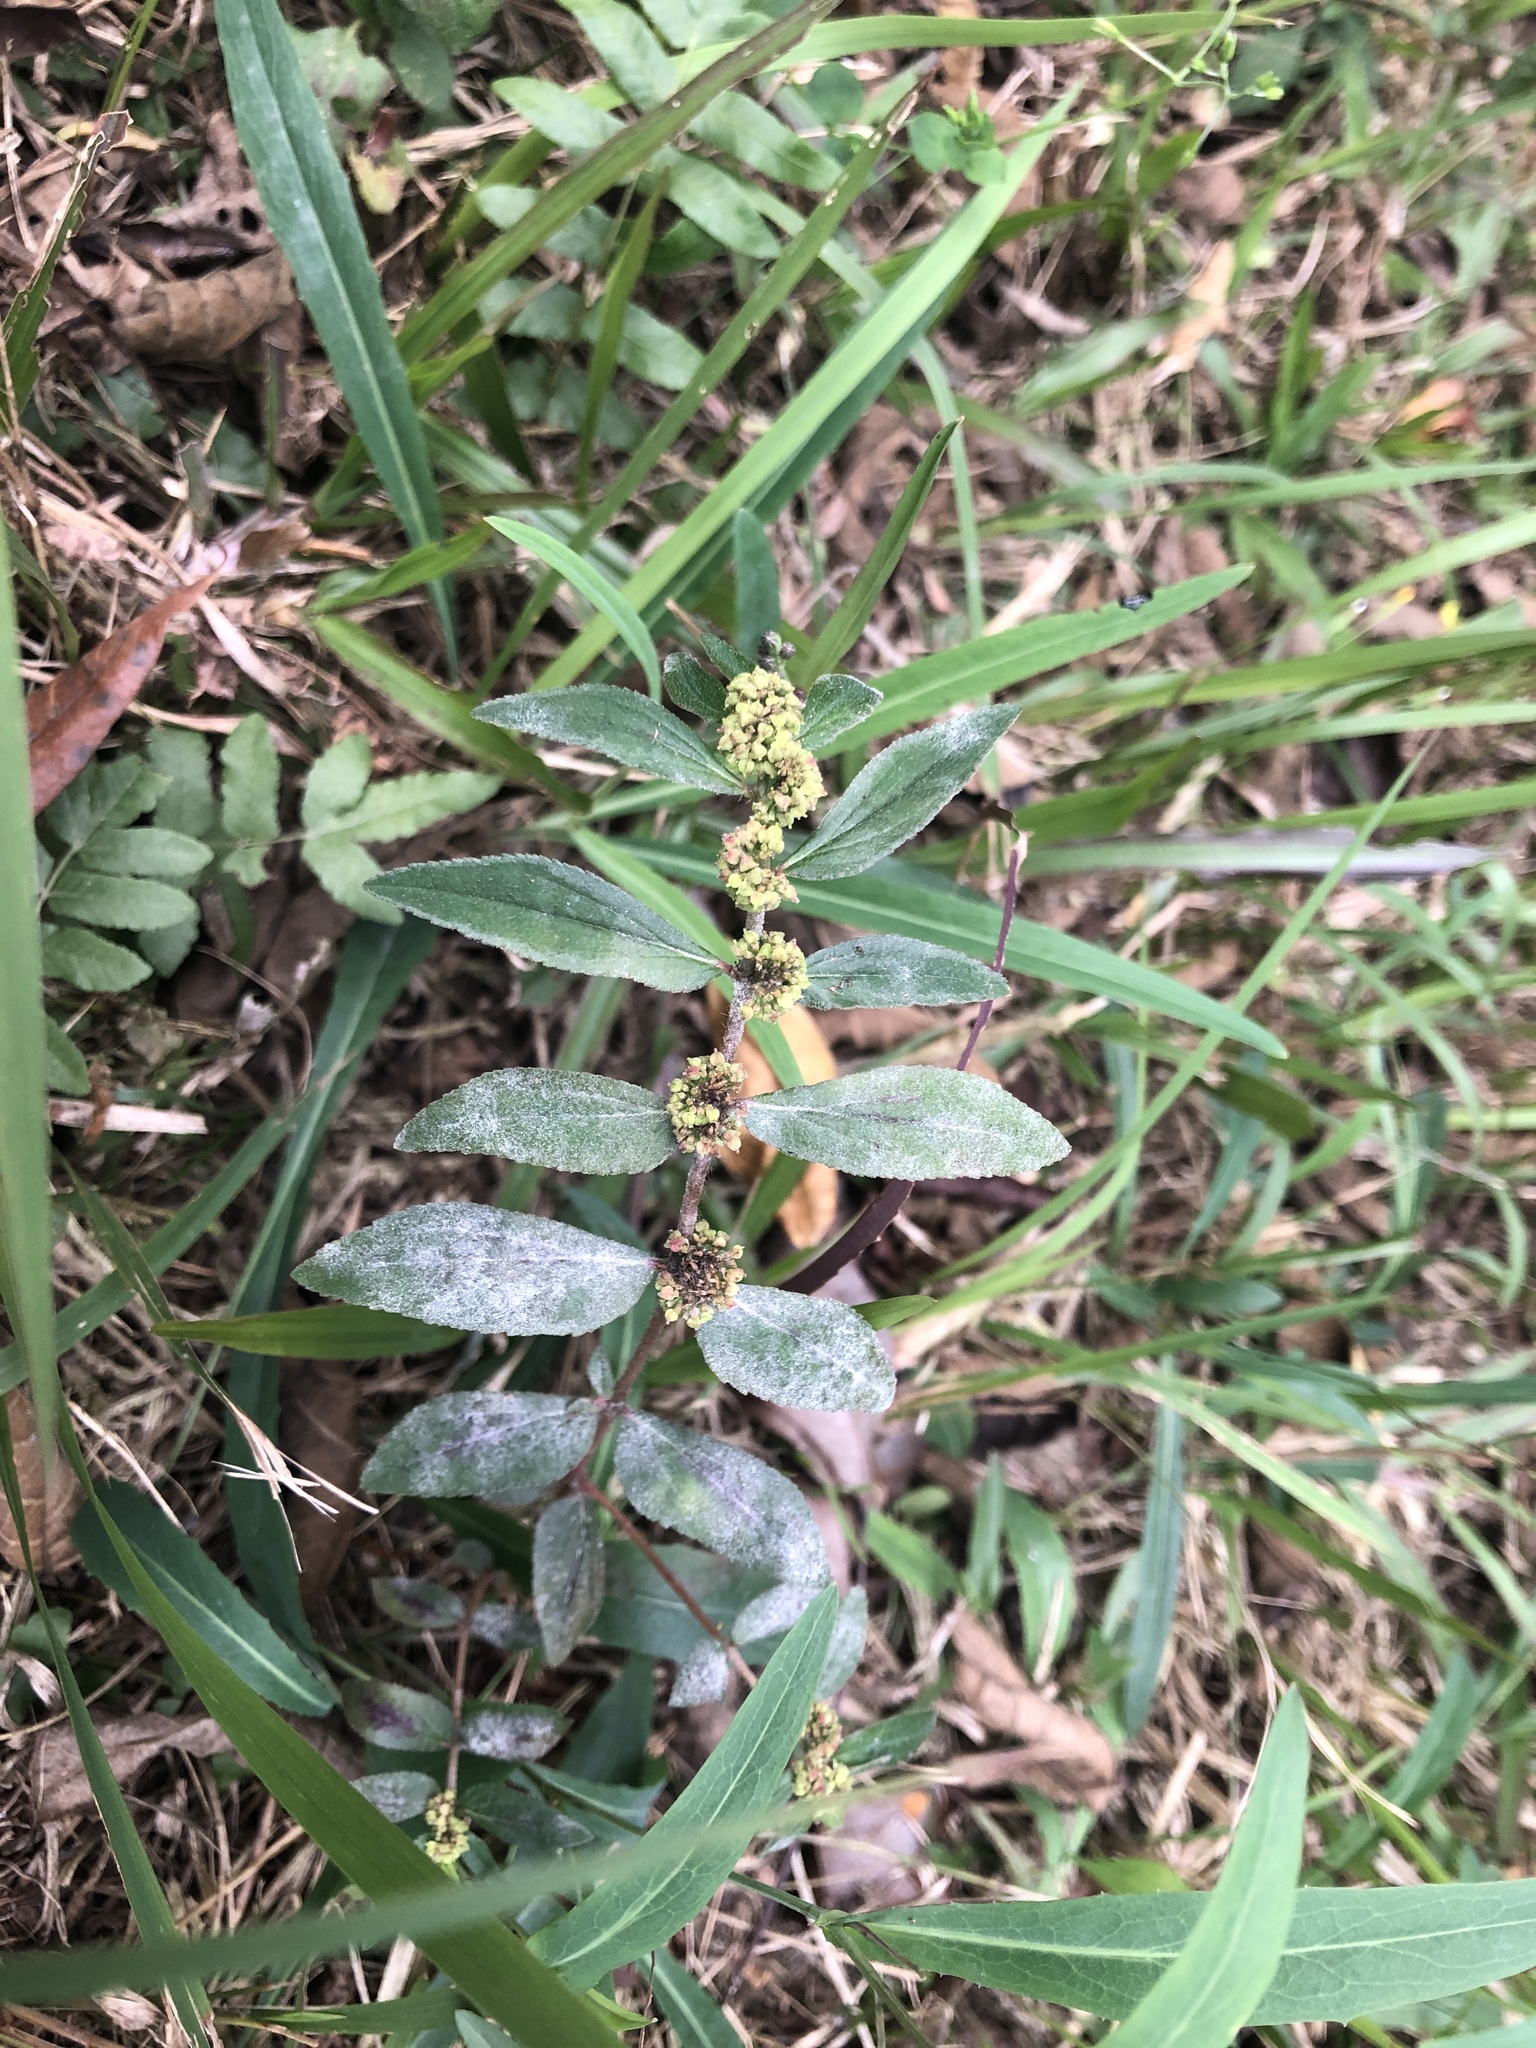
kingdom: Plantae
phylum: Tracheophyta
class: Magnoliopsida
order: Malpighiales
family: Euphorbiaceae
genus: Euphorbia
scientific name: Euphorbia hirta
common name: Pillpod sandmat
